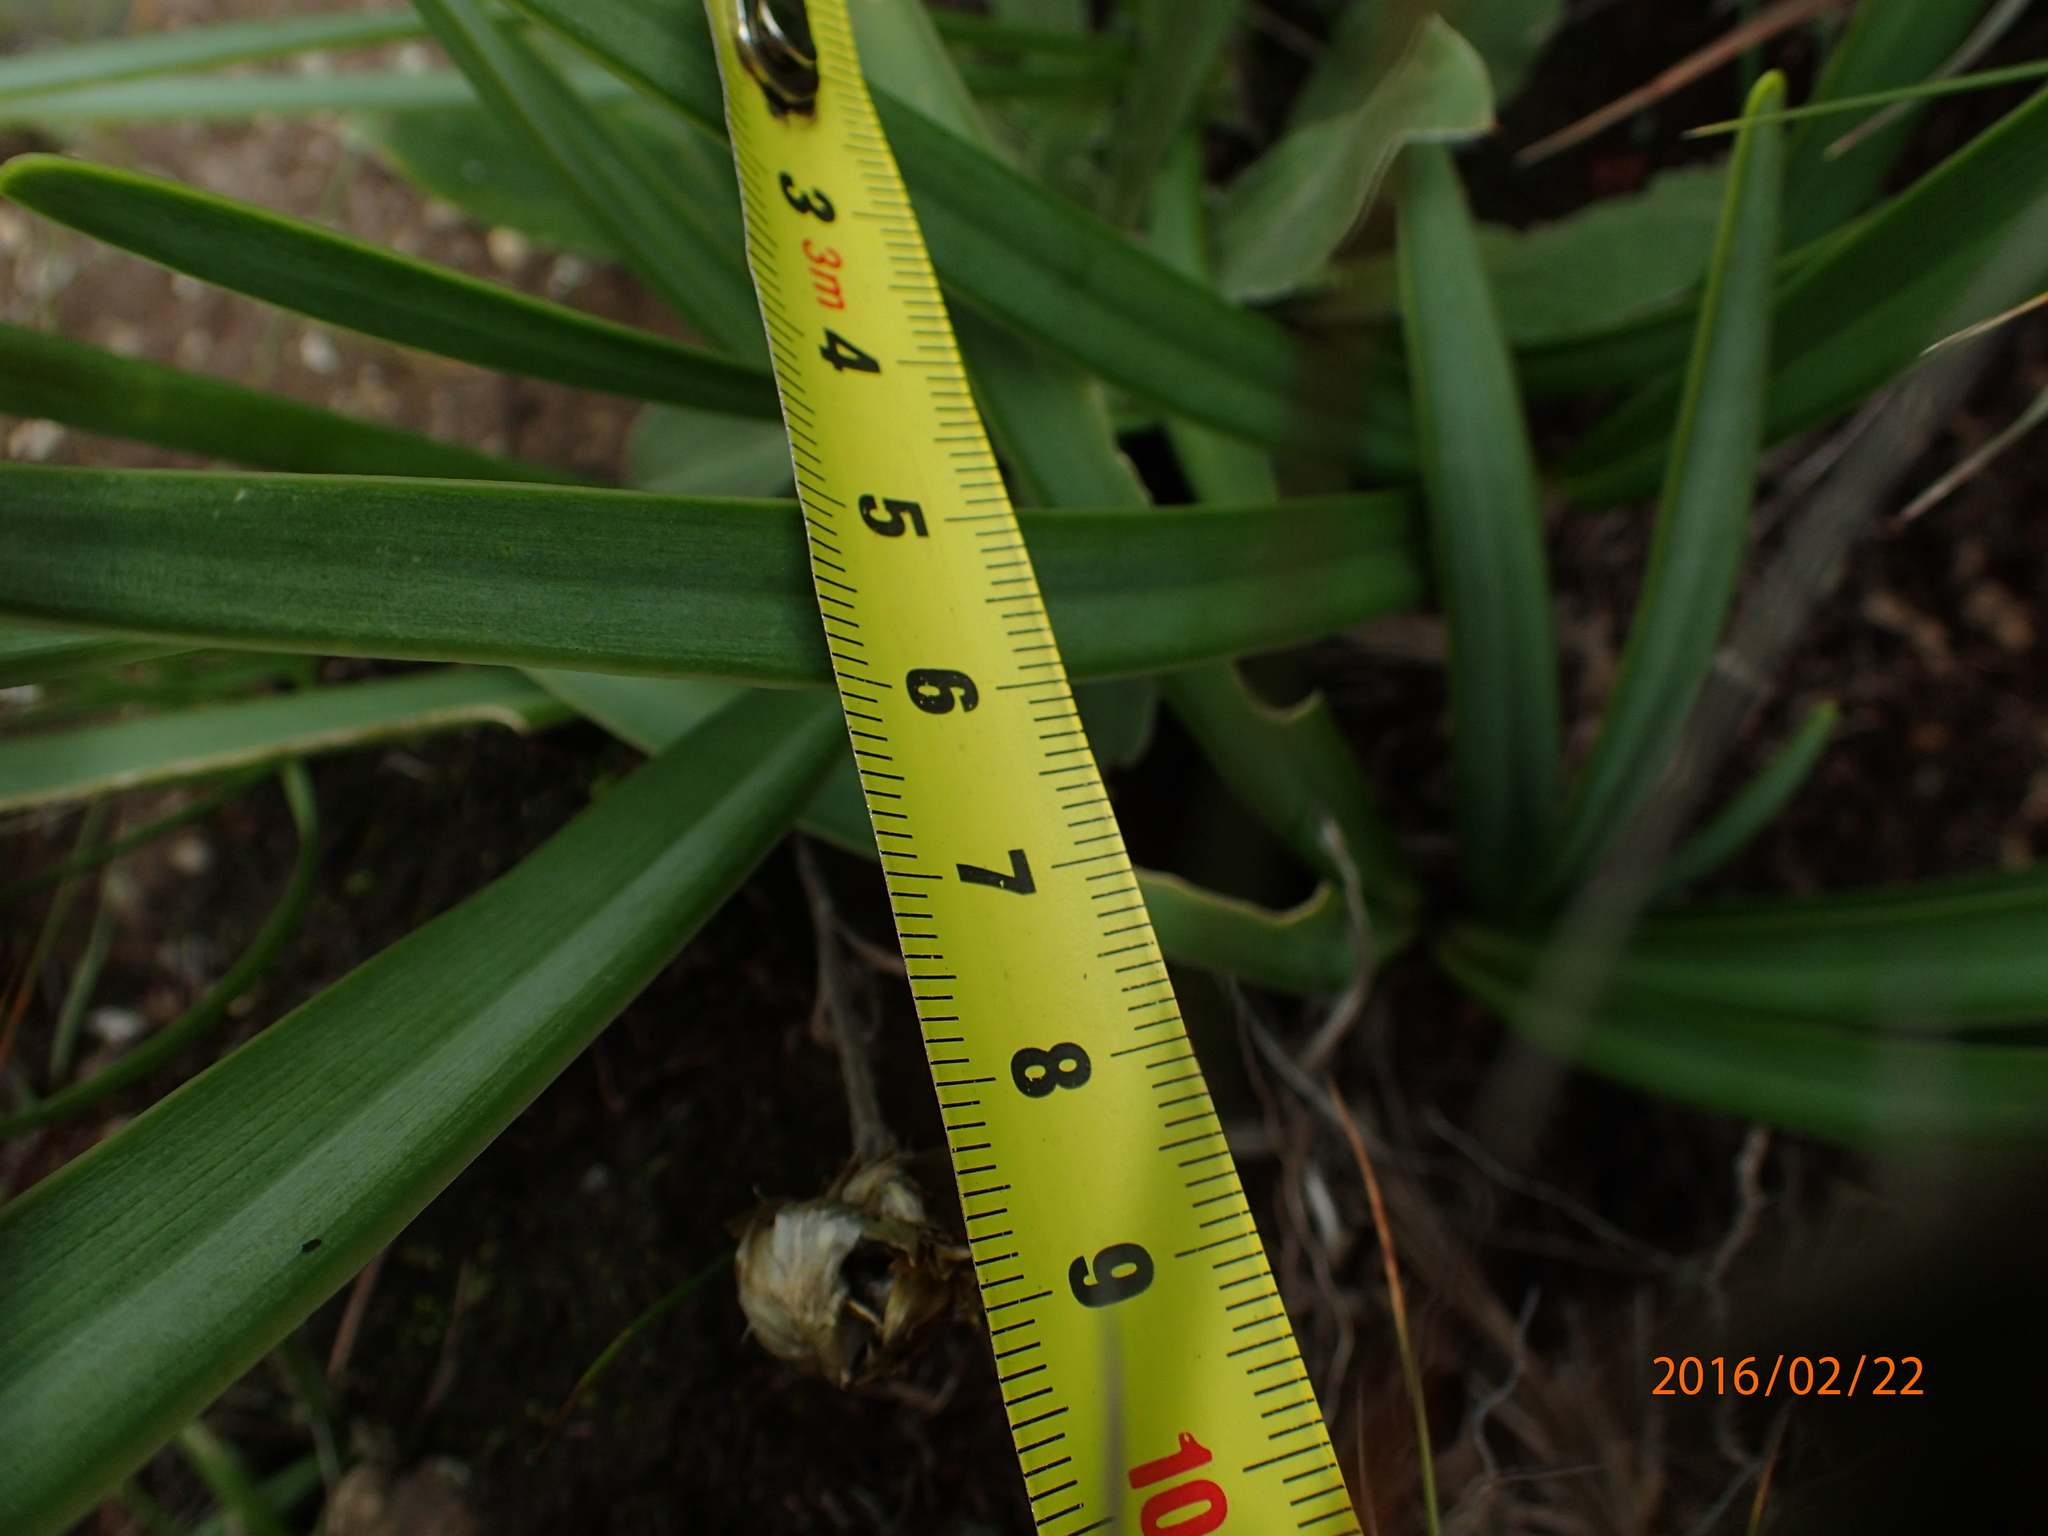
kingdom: Plantae
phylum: Tracheophyta
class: Liliopsida
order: Asparagales
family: Amaryllidaceae
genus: Agapanthus
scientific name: Agapanthus campanulatus
